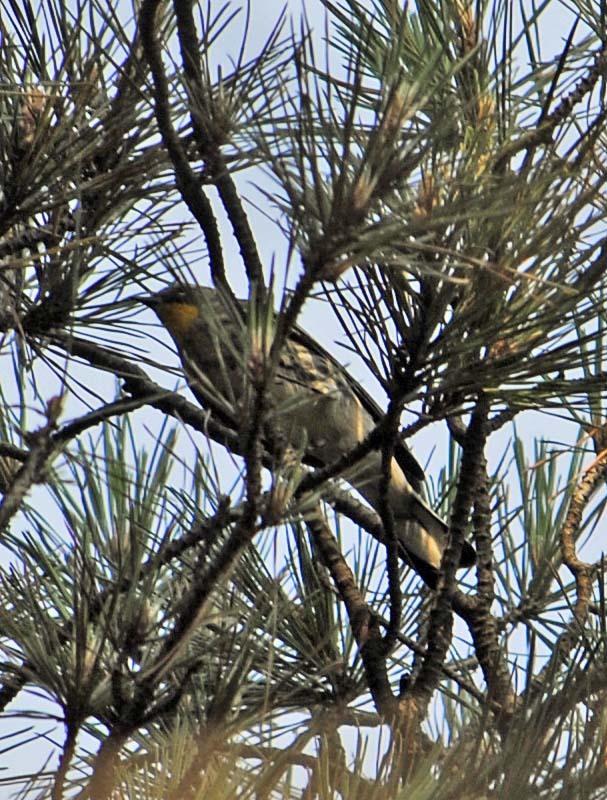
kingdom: Animalia
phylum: Chordata
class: Aves
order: Passeriformes
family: Parulidae
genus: Setophaga
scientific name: Setophaga coronata
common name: Myrtle warbler
